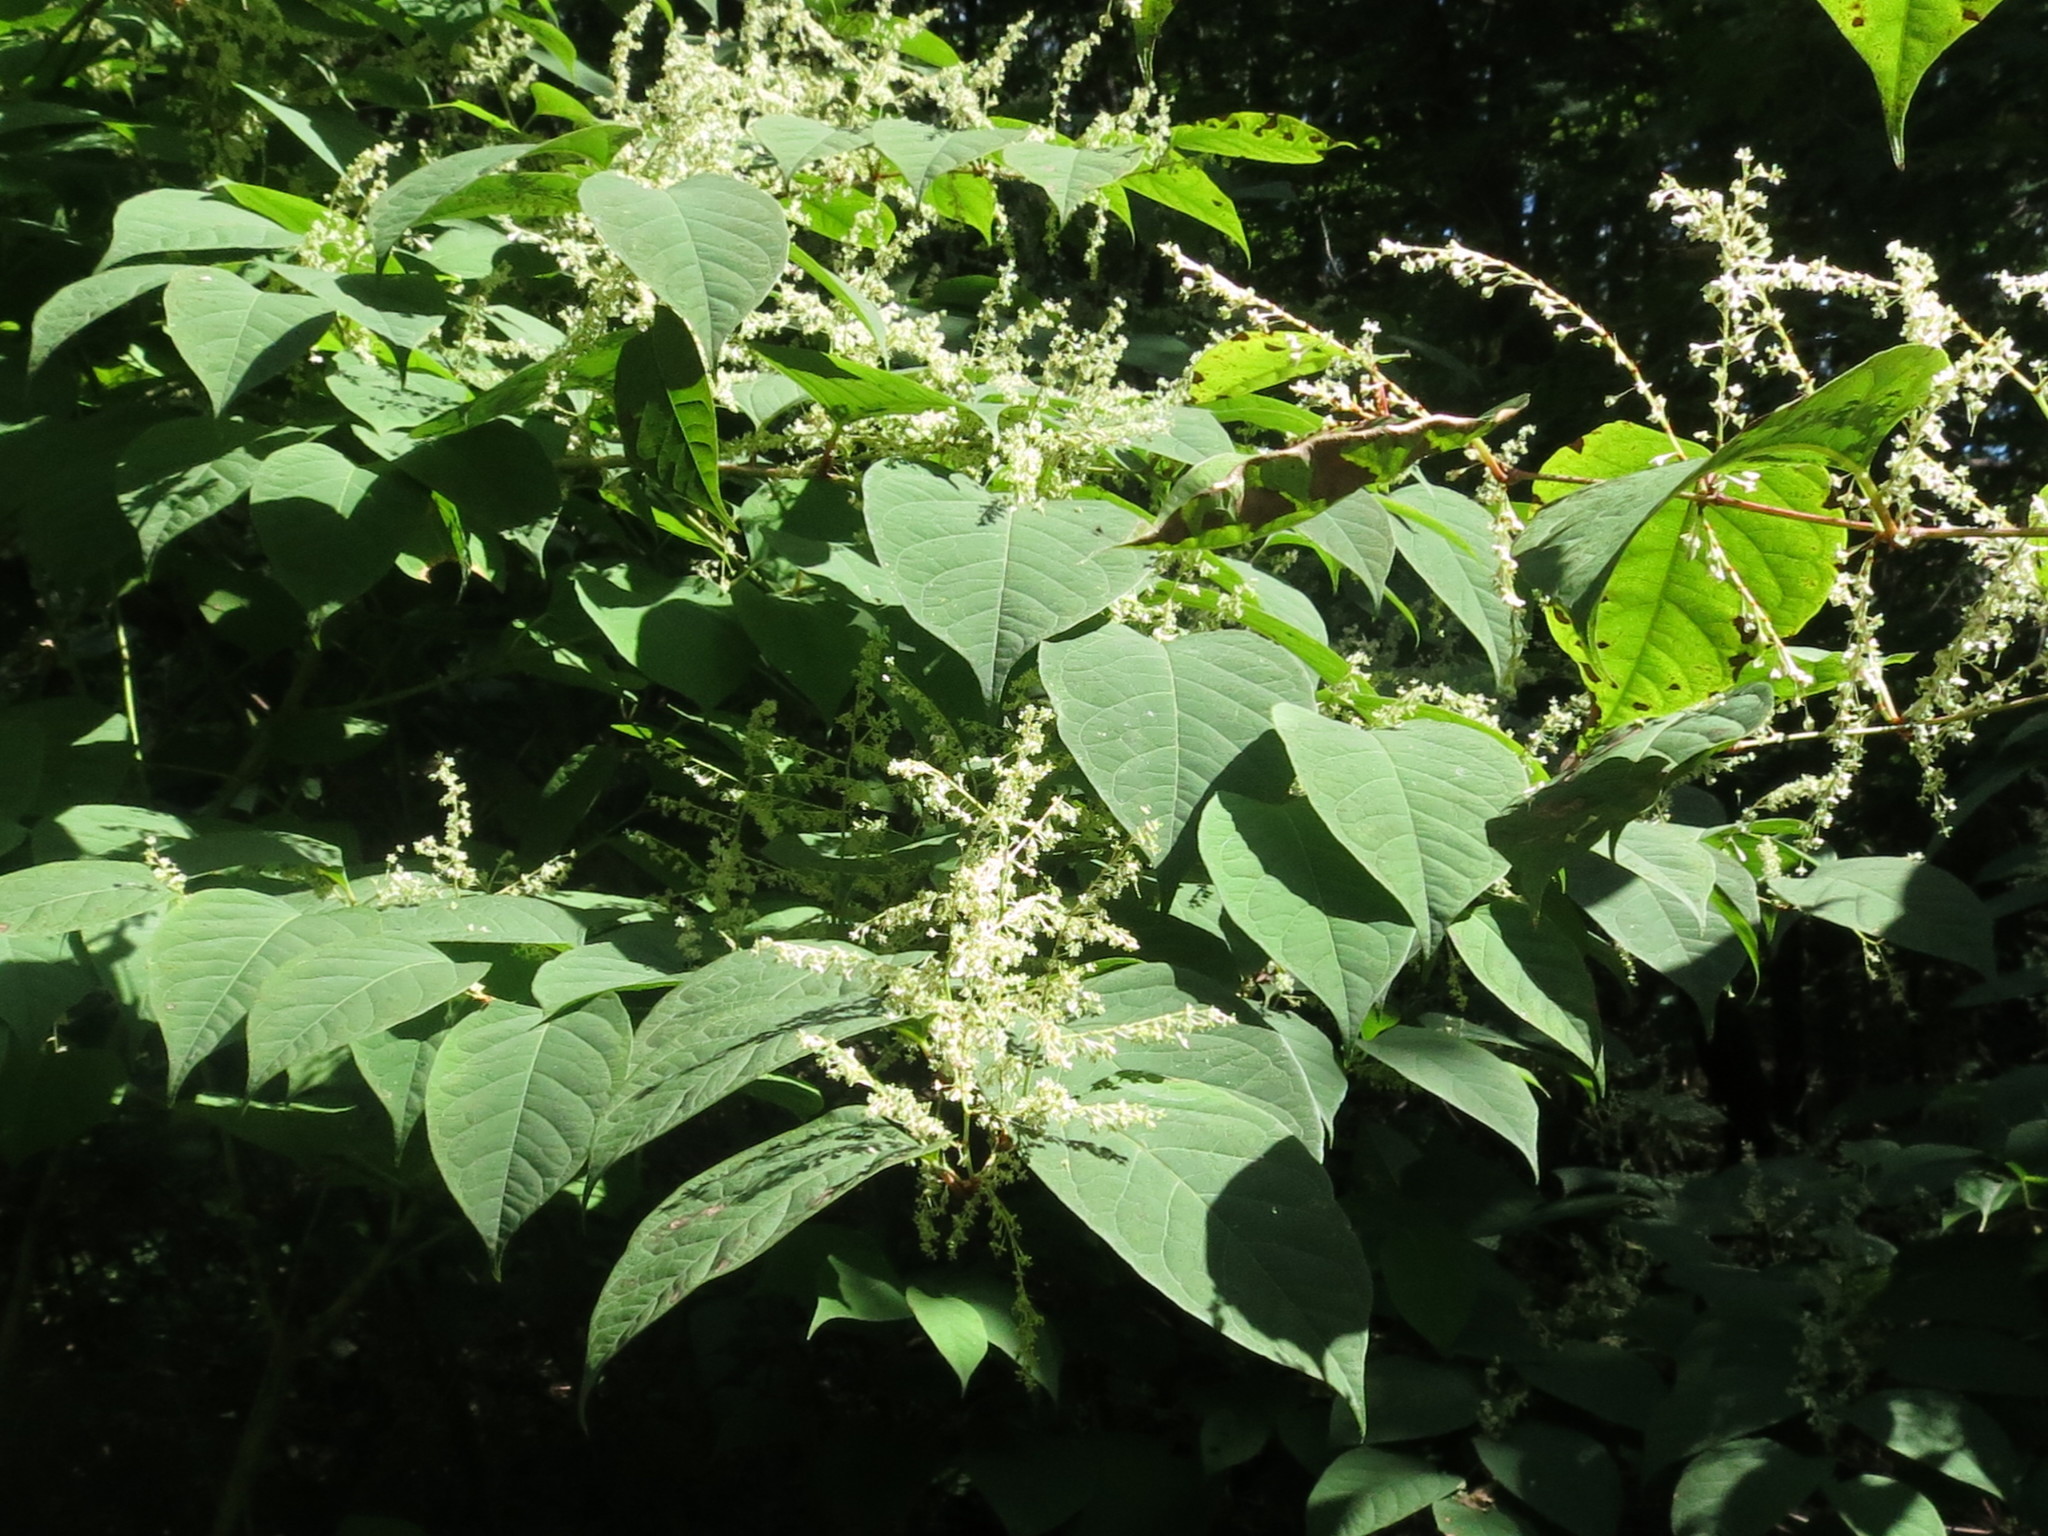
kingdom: Plantae
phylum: Tracheophyta
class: Magnoliopsida
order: Caryophyllales
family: Polygonaceae
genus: Reynoutria
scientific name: Reynoutria japonica
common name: Japanese knotweed
